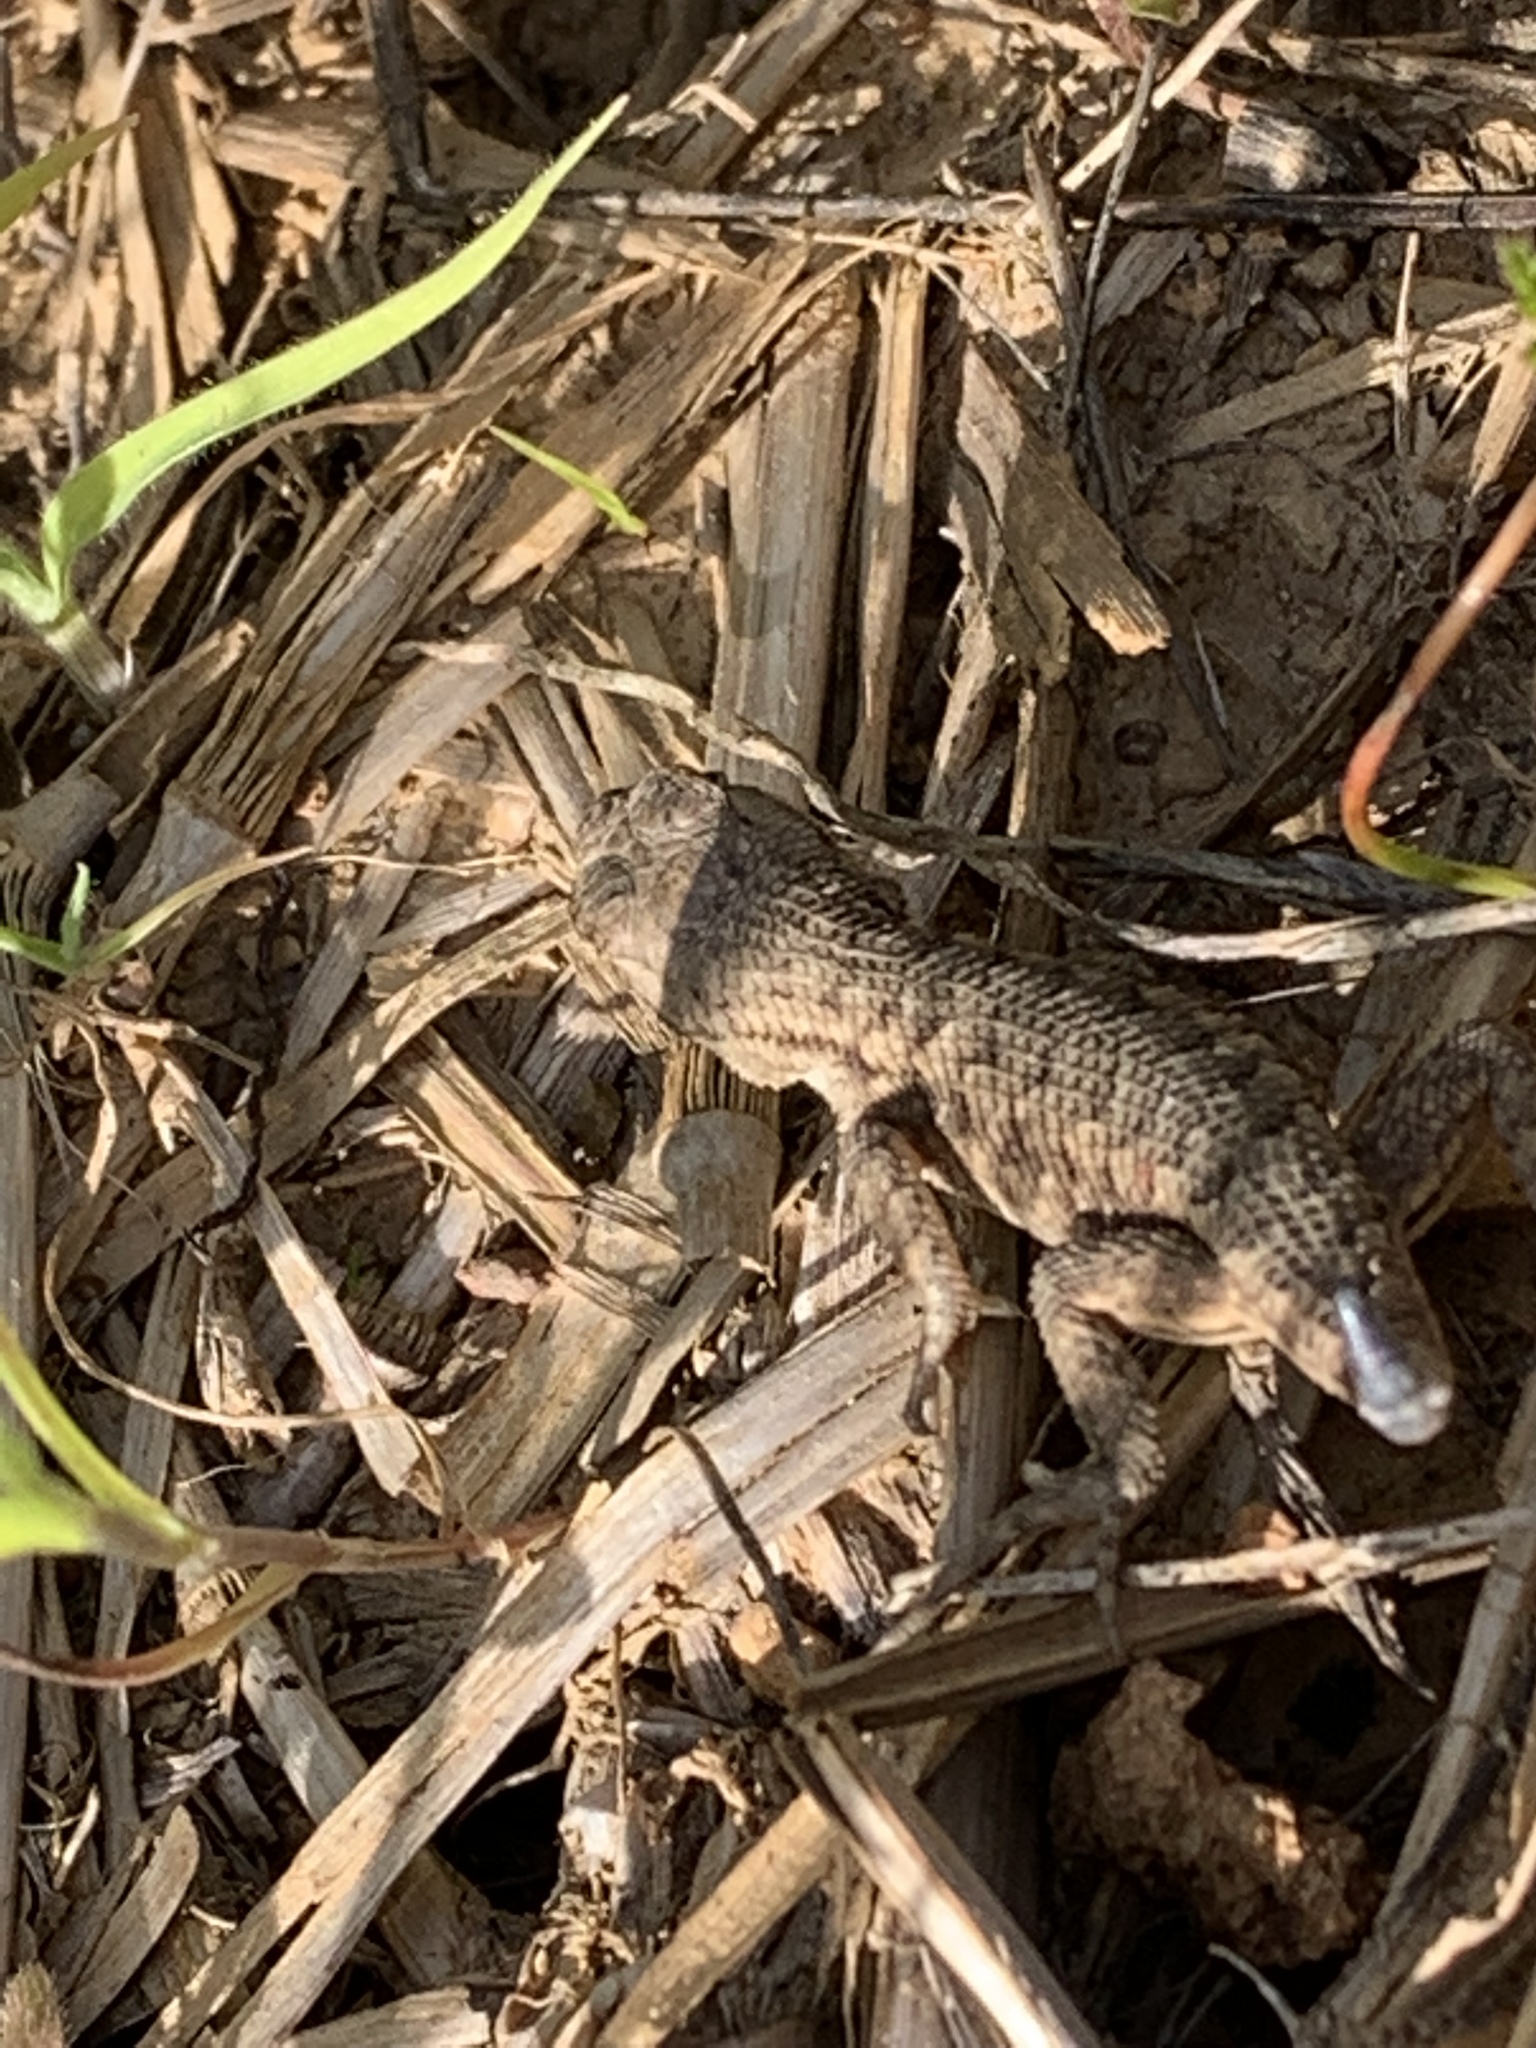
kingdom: Animalia
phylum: Chordata
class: Squamata
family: Phrynosomatidae
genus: Sceloporus
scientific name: Sceloporus occidentalis
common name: Western fence lizard
